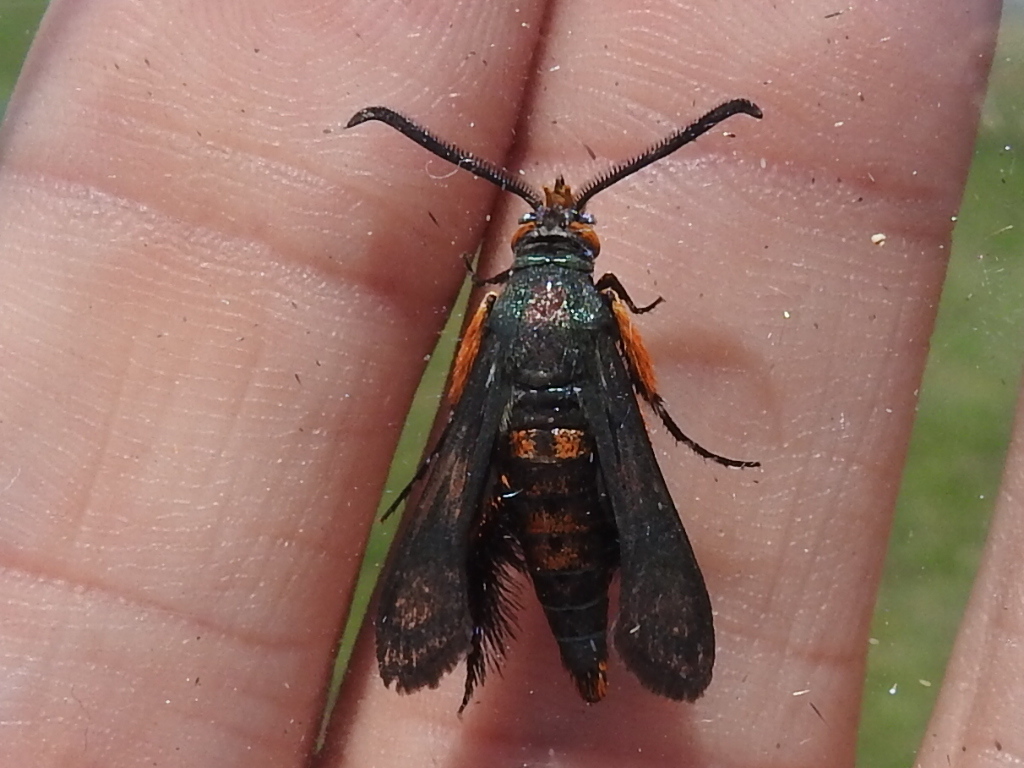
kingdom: Animalia
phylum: Arthropoda
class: Insecta
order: Lepidoptera
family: Sesiidae
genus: Eichlinia
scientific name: Eichlinia calabaza
